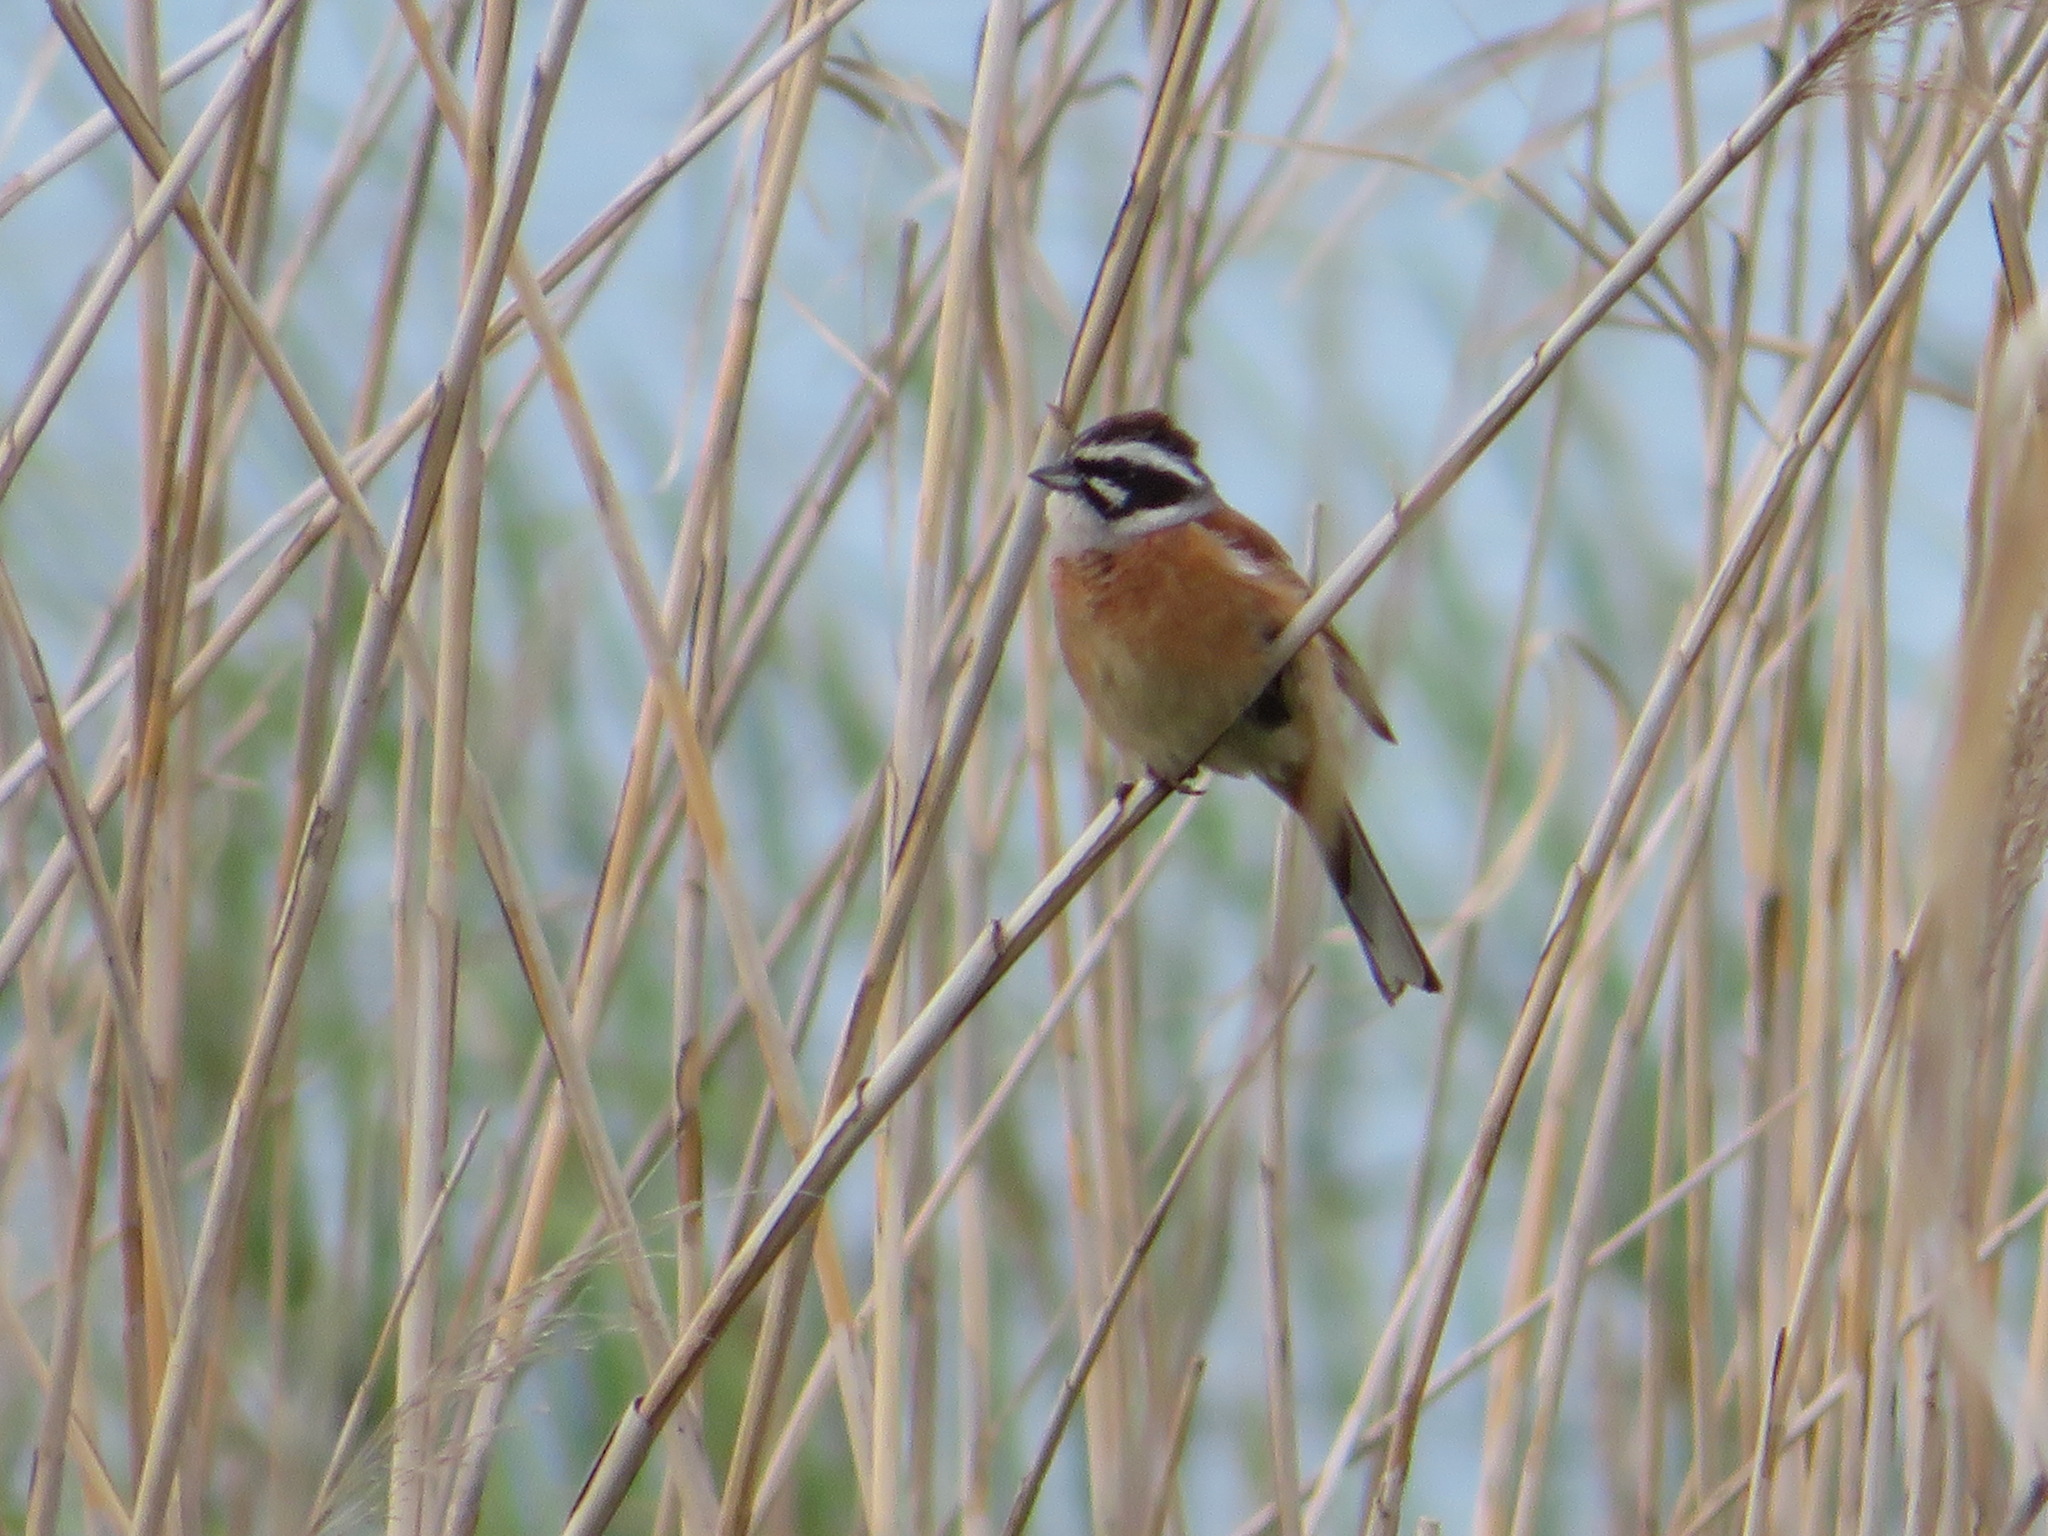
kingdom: Animalia
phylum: Chordata
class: Aves
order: Passeriformes
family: Emberizidae
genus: Emberiza
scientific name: Emberiza cioides
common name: Meadow bunting
